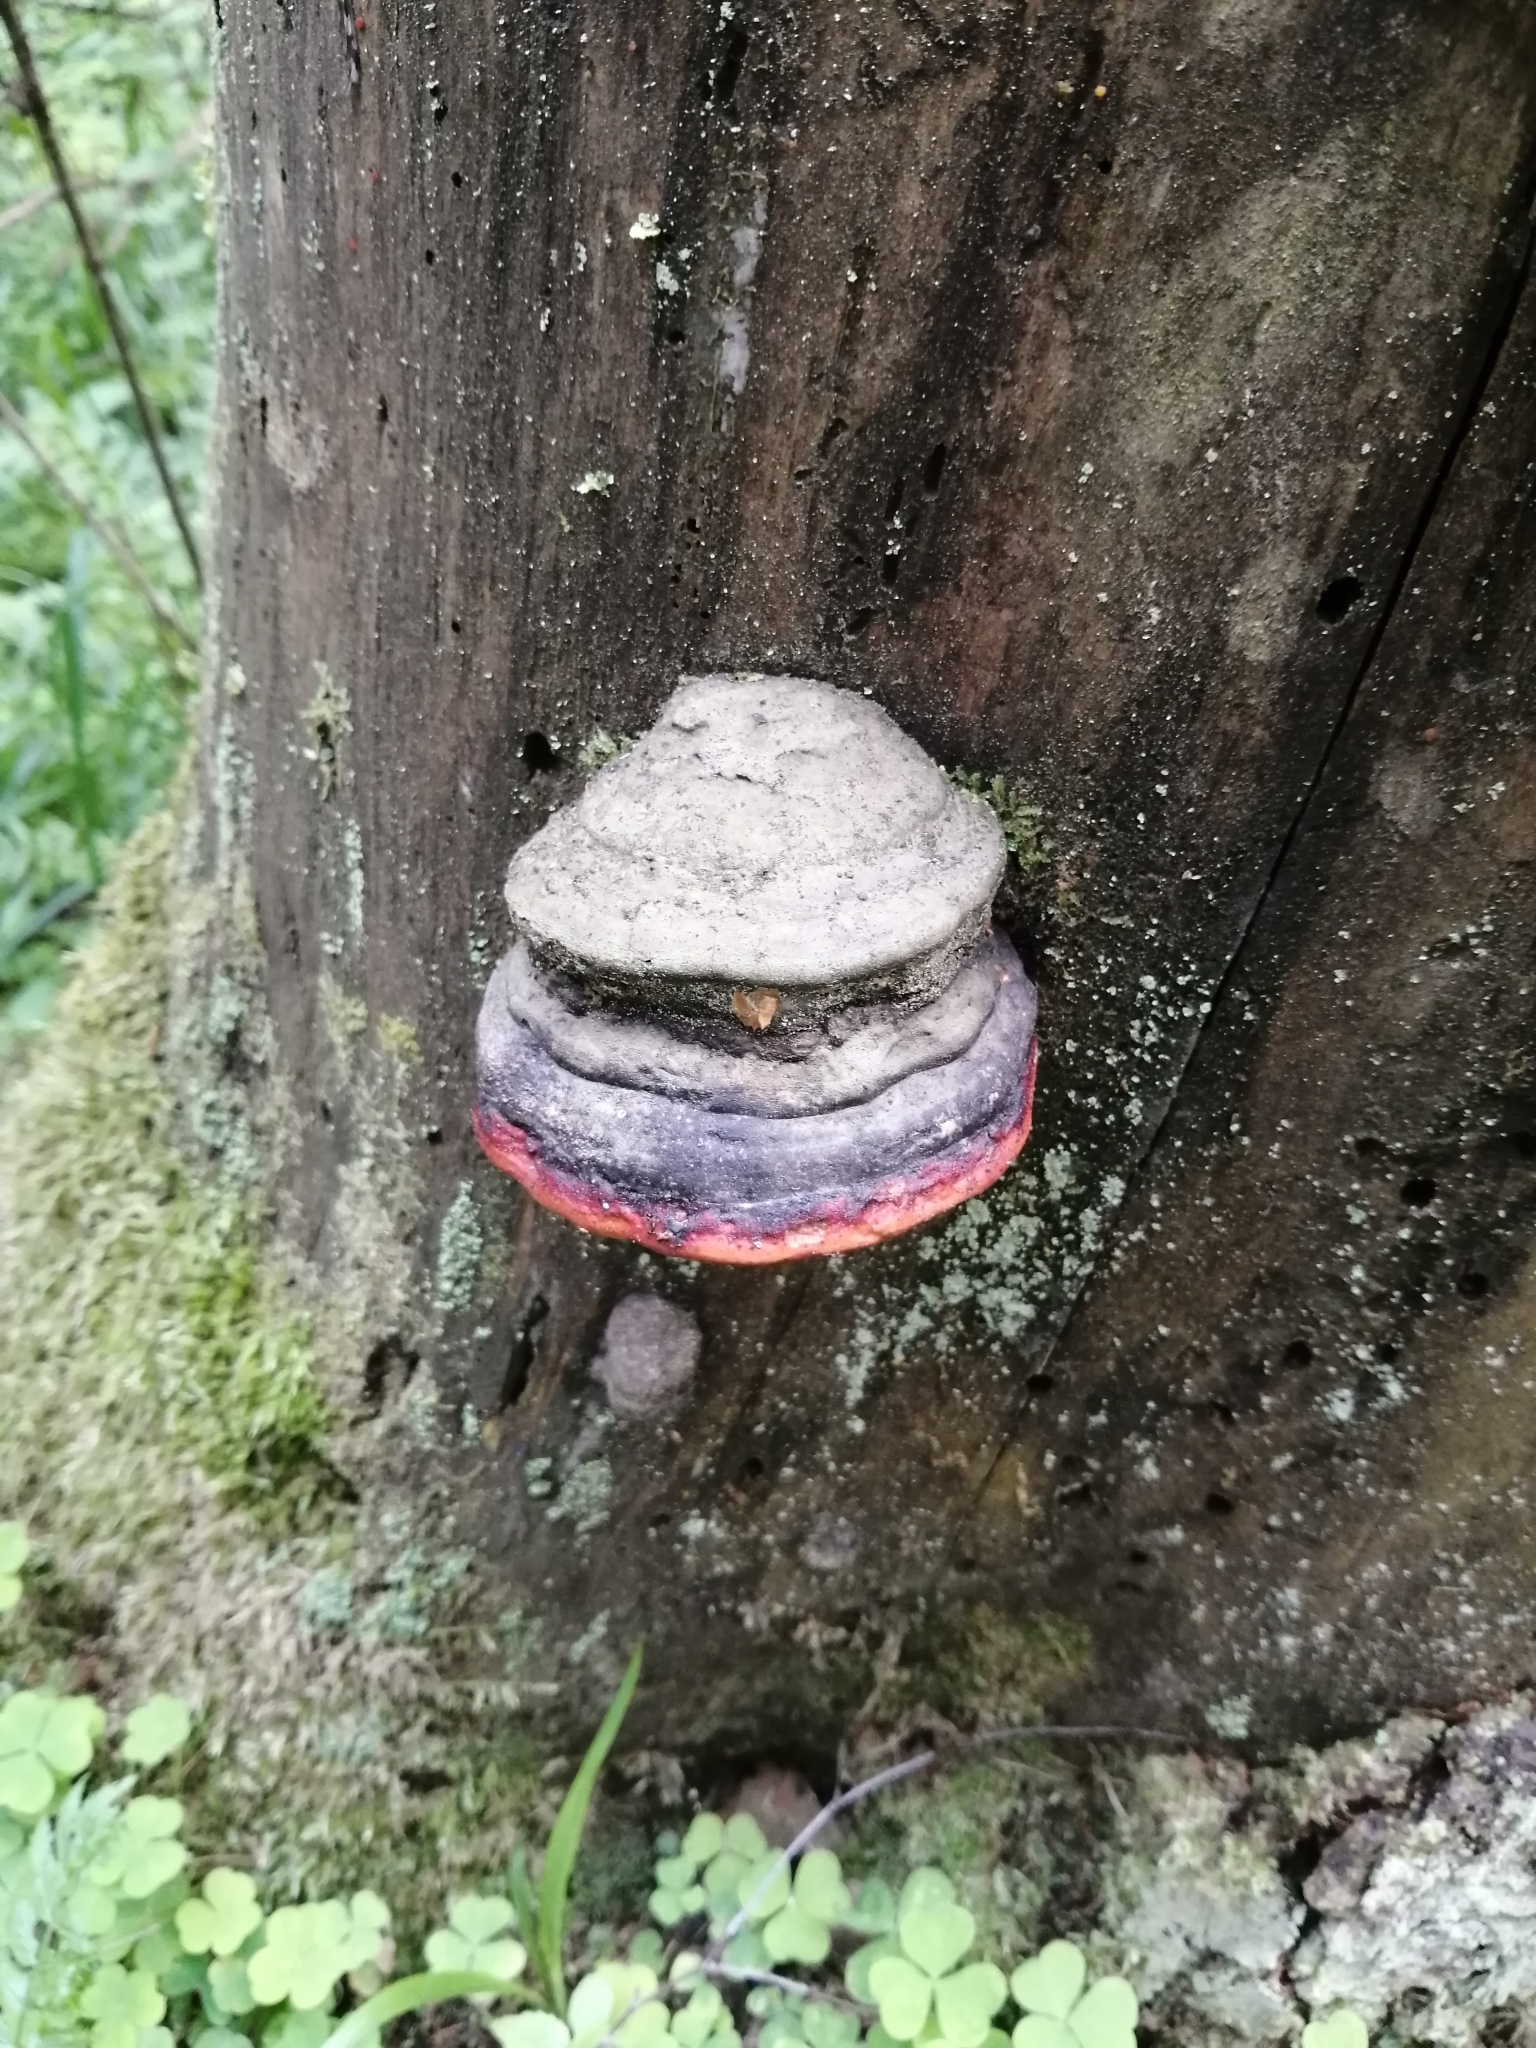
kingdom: Fungi
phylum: Basidiomycota
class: Agaricomycetes
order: Polyporales
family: Fomitopsidaceae
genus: Fomitopsis
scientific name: Fomitopsis pinicola
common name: Red-belted bracket
